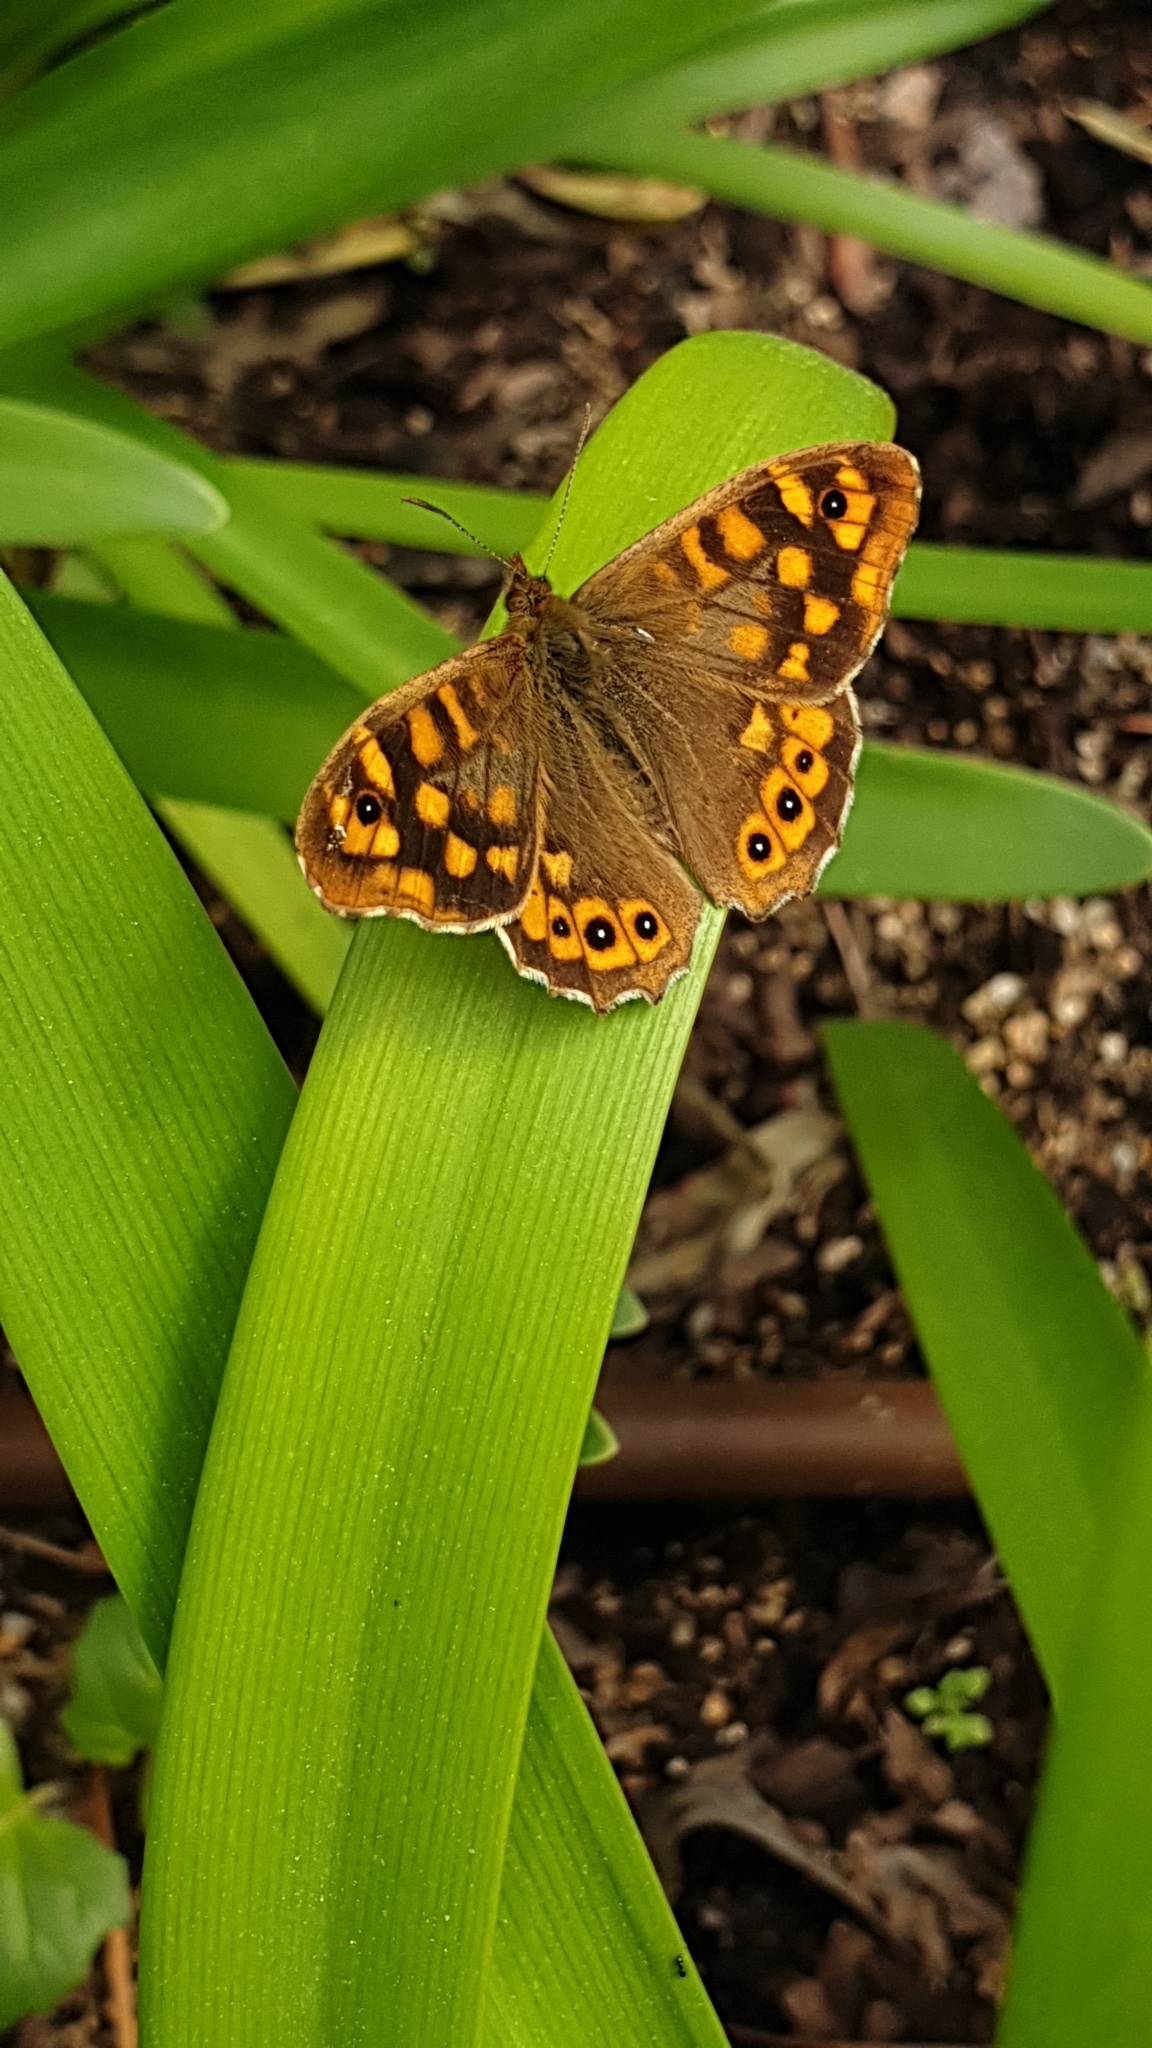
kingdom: Animalia
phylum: Arthropoda
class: Insecta
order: Lepidoptera
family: Nymphalidae
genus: Pararge
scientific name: Pararge aegeria
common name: Speckled wood
